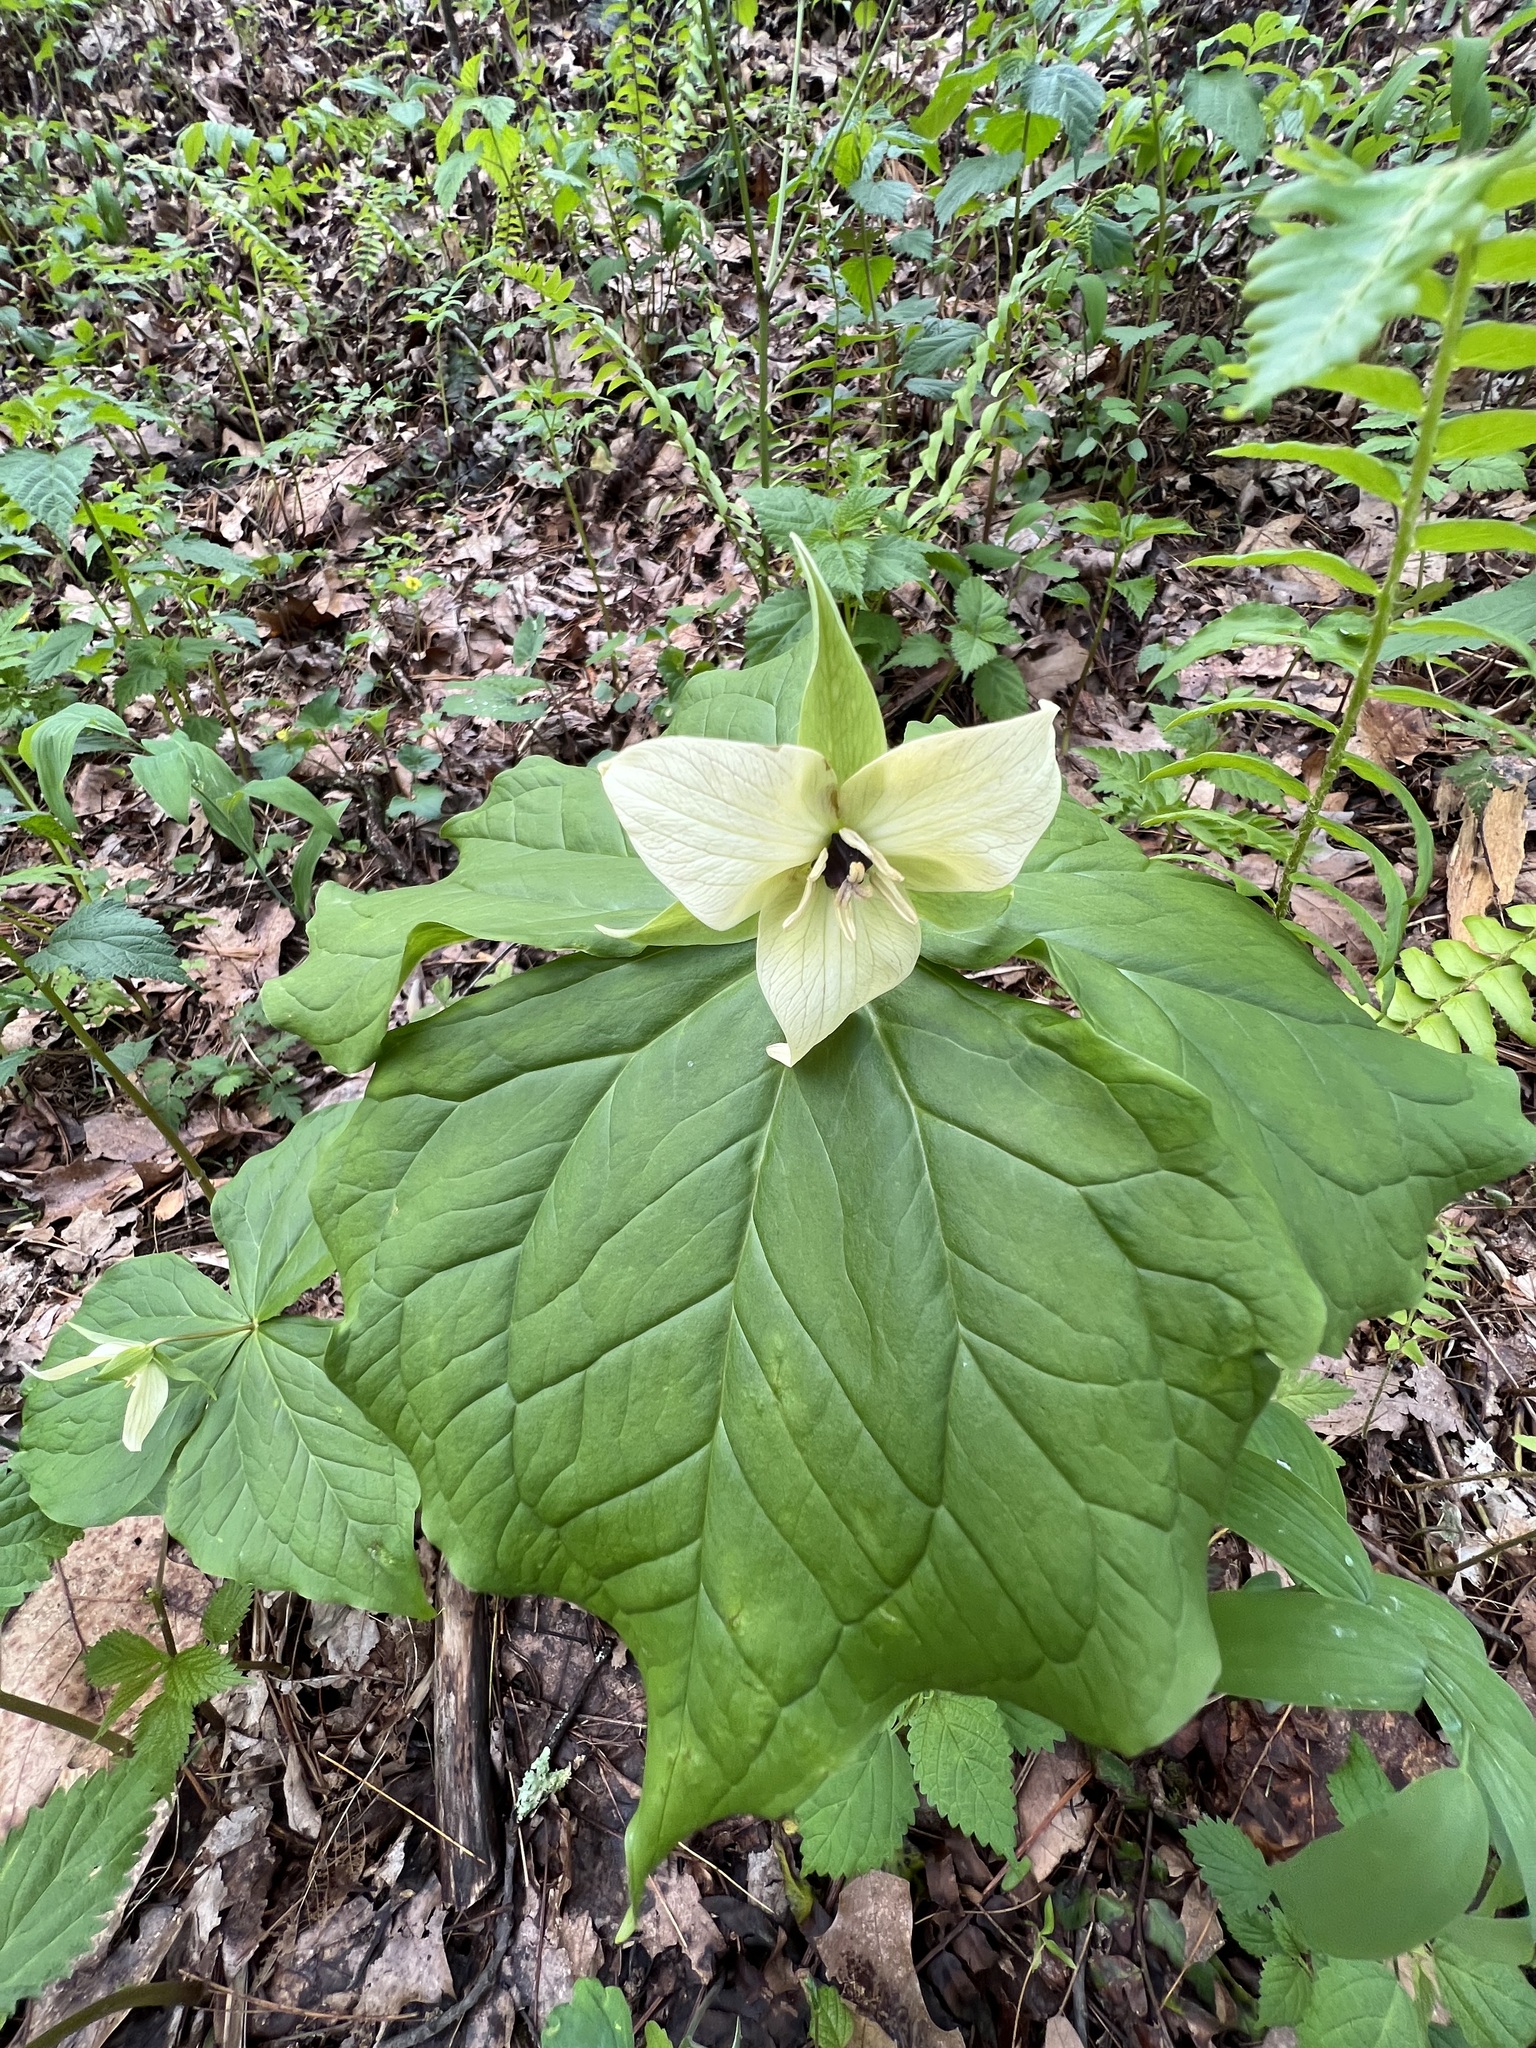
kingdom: Plantae
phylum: Tracheophyta
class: Liliopsida
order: Liliales
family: Melanthiaceae
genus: Trillium
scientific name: Trillium erectum
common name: Purple trillium
